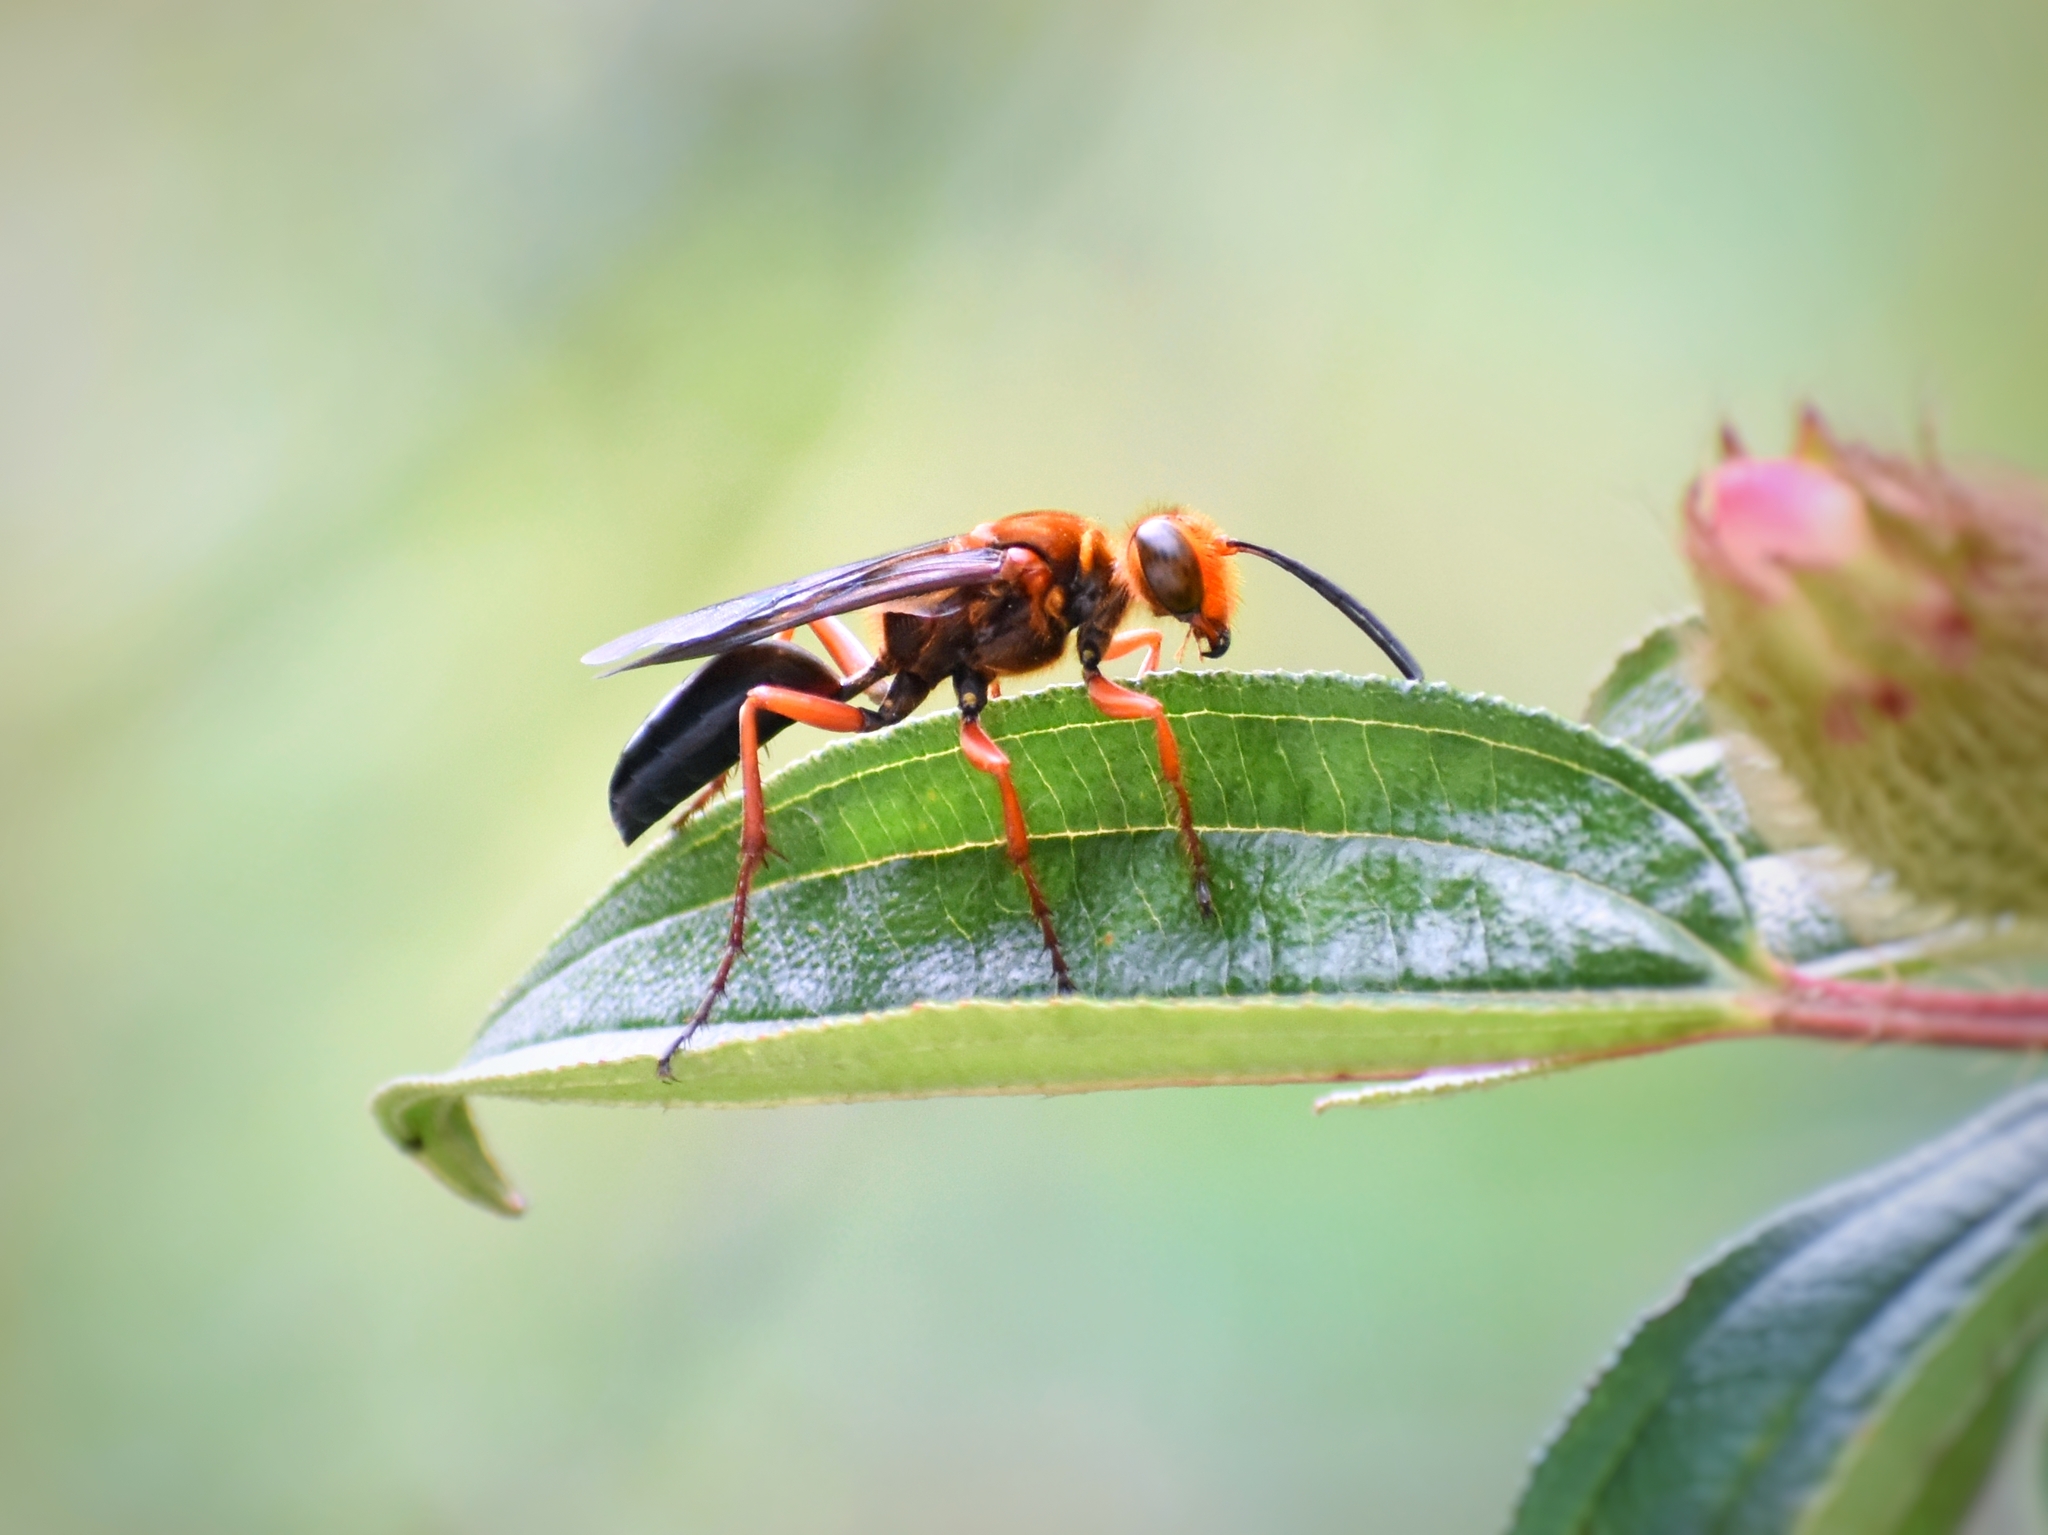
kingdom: Animalia
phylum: Arthropoda
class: Insecta
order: Hymenoptera
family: Sphecidae
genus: Sphex
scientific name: Sphex sericeus
